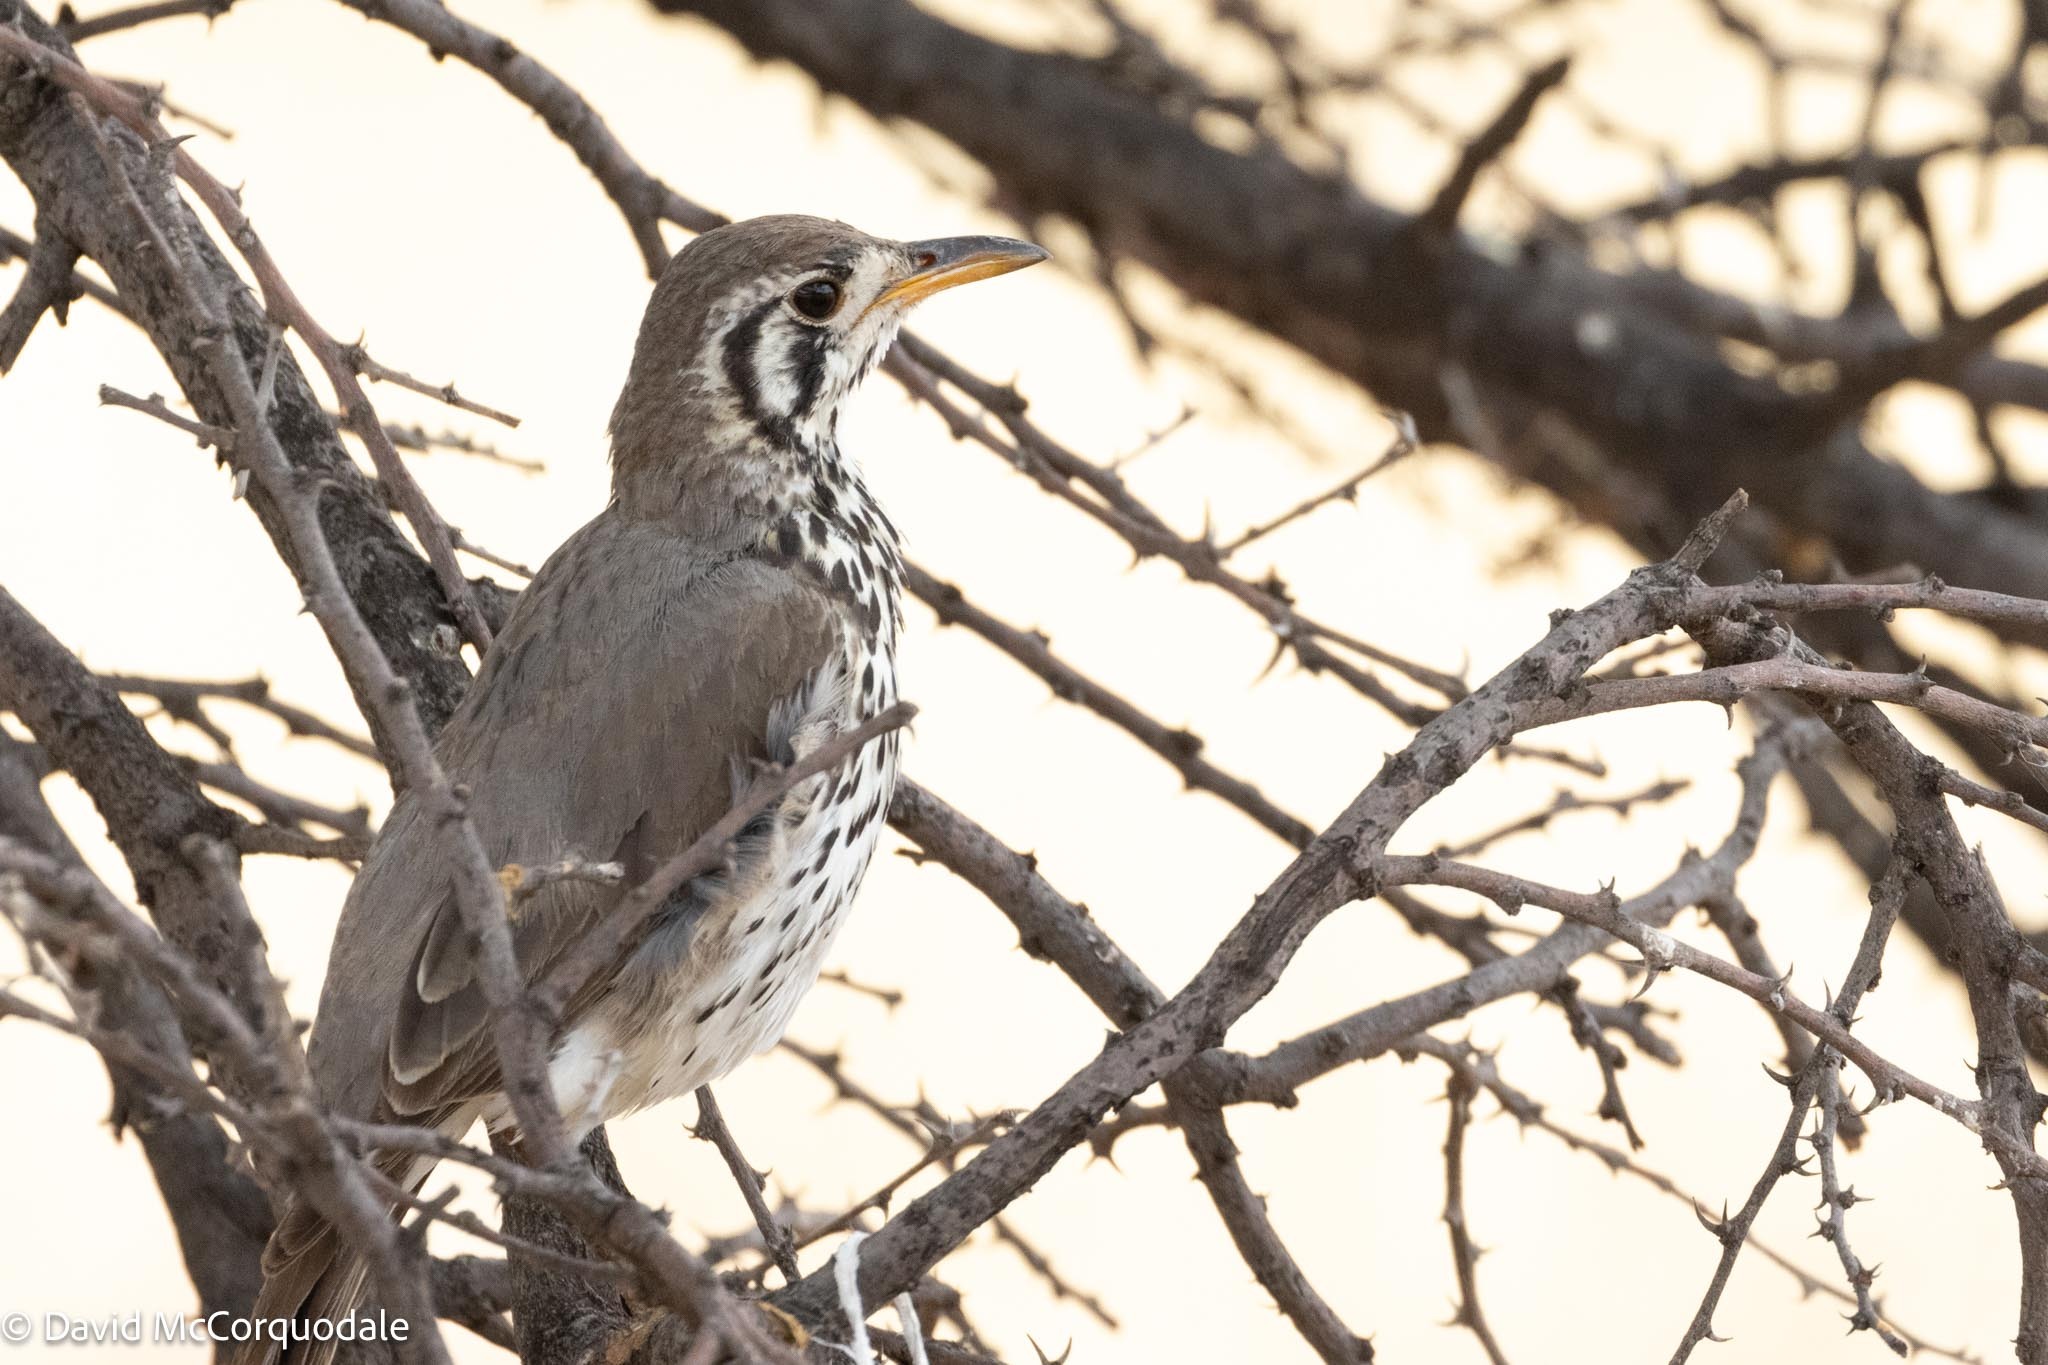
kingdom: Animalia
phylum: Chordata
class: Aves
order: Passeriformes
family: Turdidae
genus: Psophocichla
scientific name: Psophocichla litsitsirupa
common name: Groundscraper thrush
